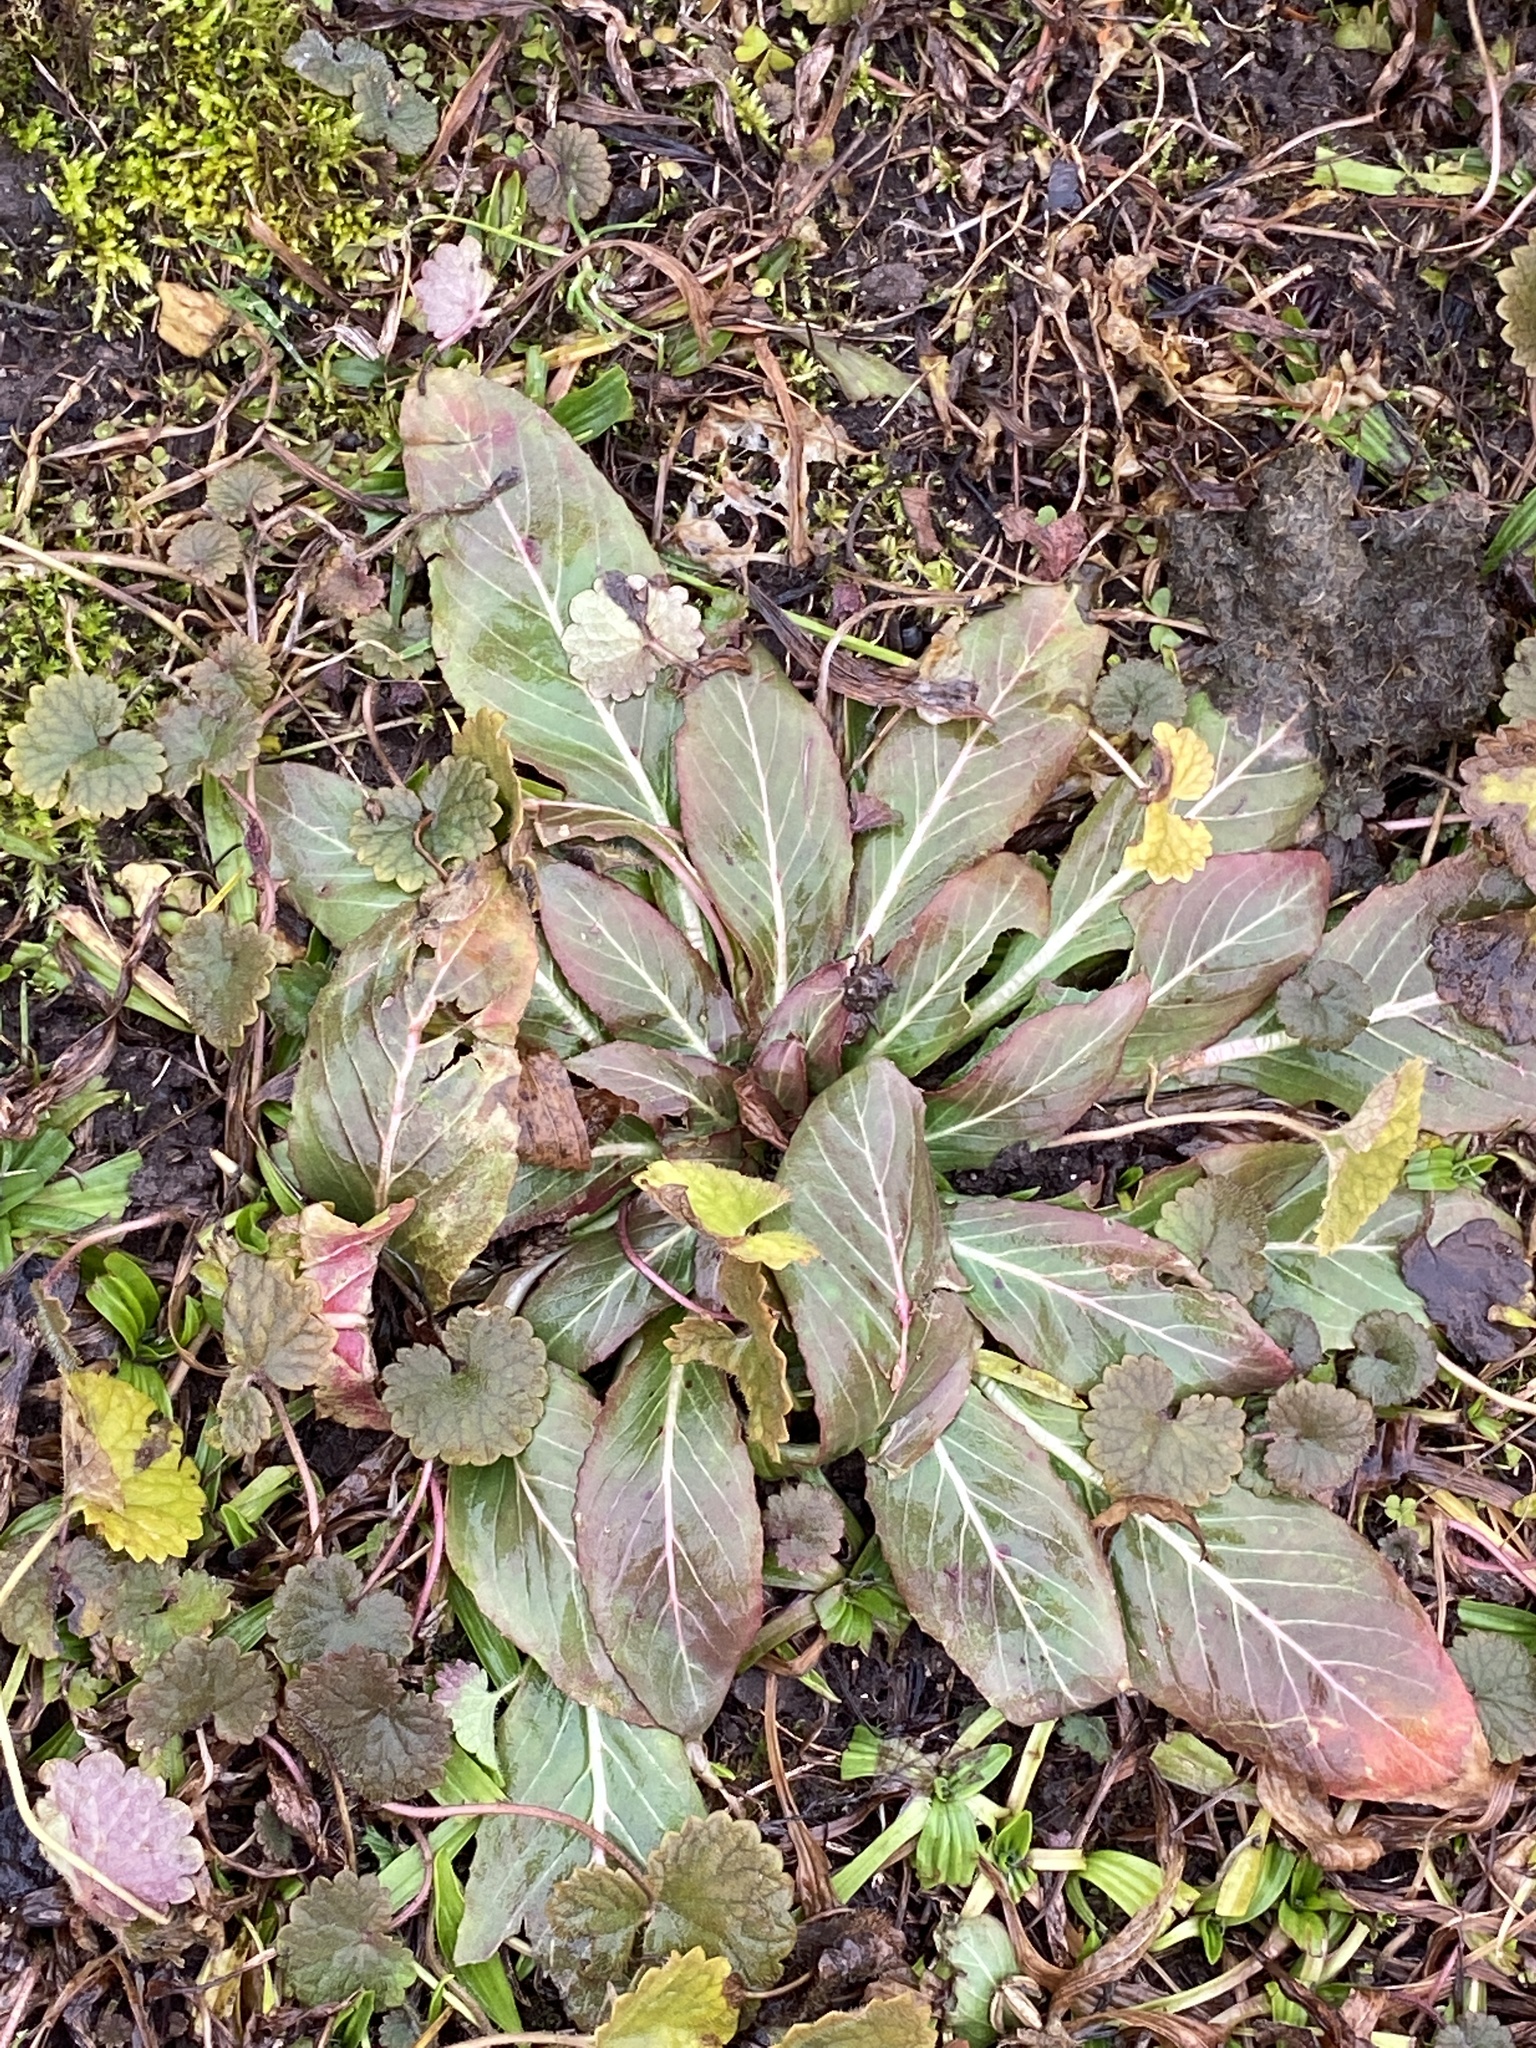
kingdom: Plantae
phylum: Tracheophyta
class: Magnoliopsida
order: Myrtales
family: Onagraceae
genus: Oenothera
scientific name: Oenothera biennis
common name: Common evening-primrose
